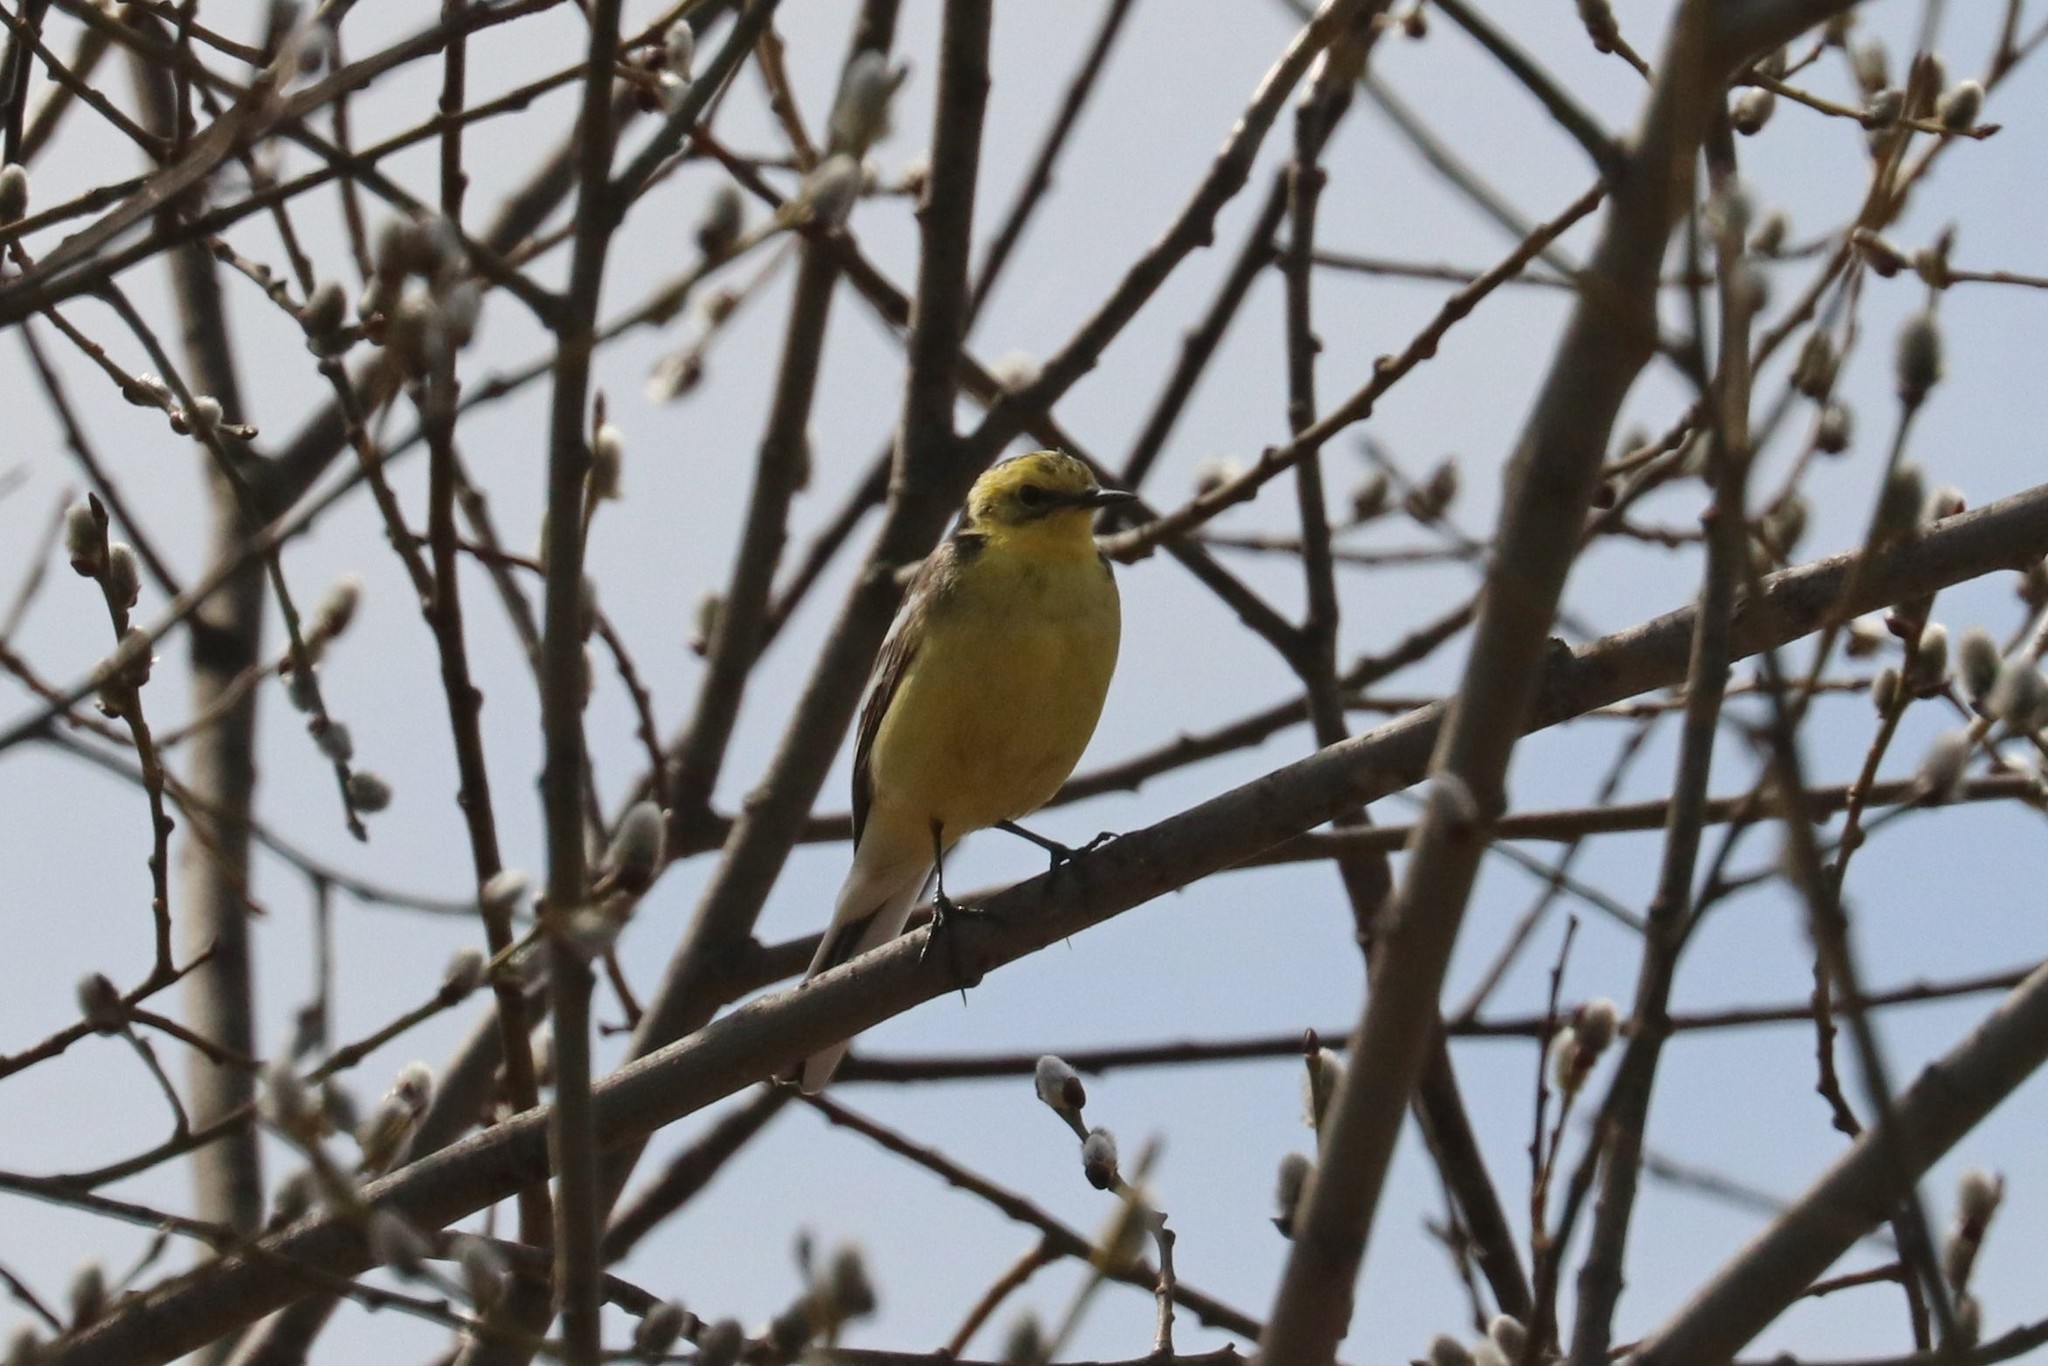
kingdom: Animalia
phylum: Chordata
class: Aves
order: Passeriformes
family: Motacillidae
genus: Motacilla
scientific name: Motacilla citreola
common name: Citrine wagtail
